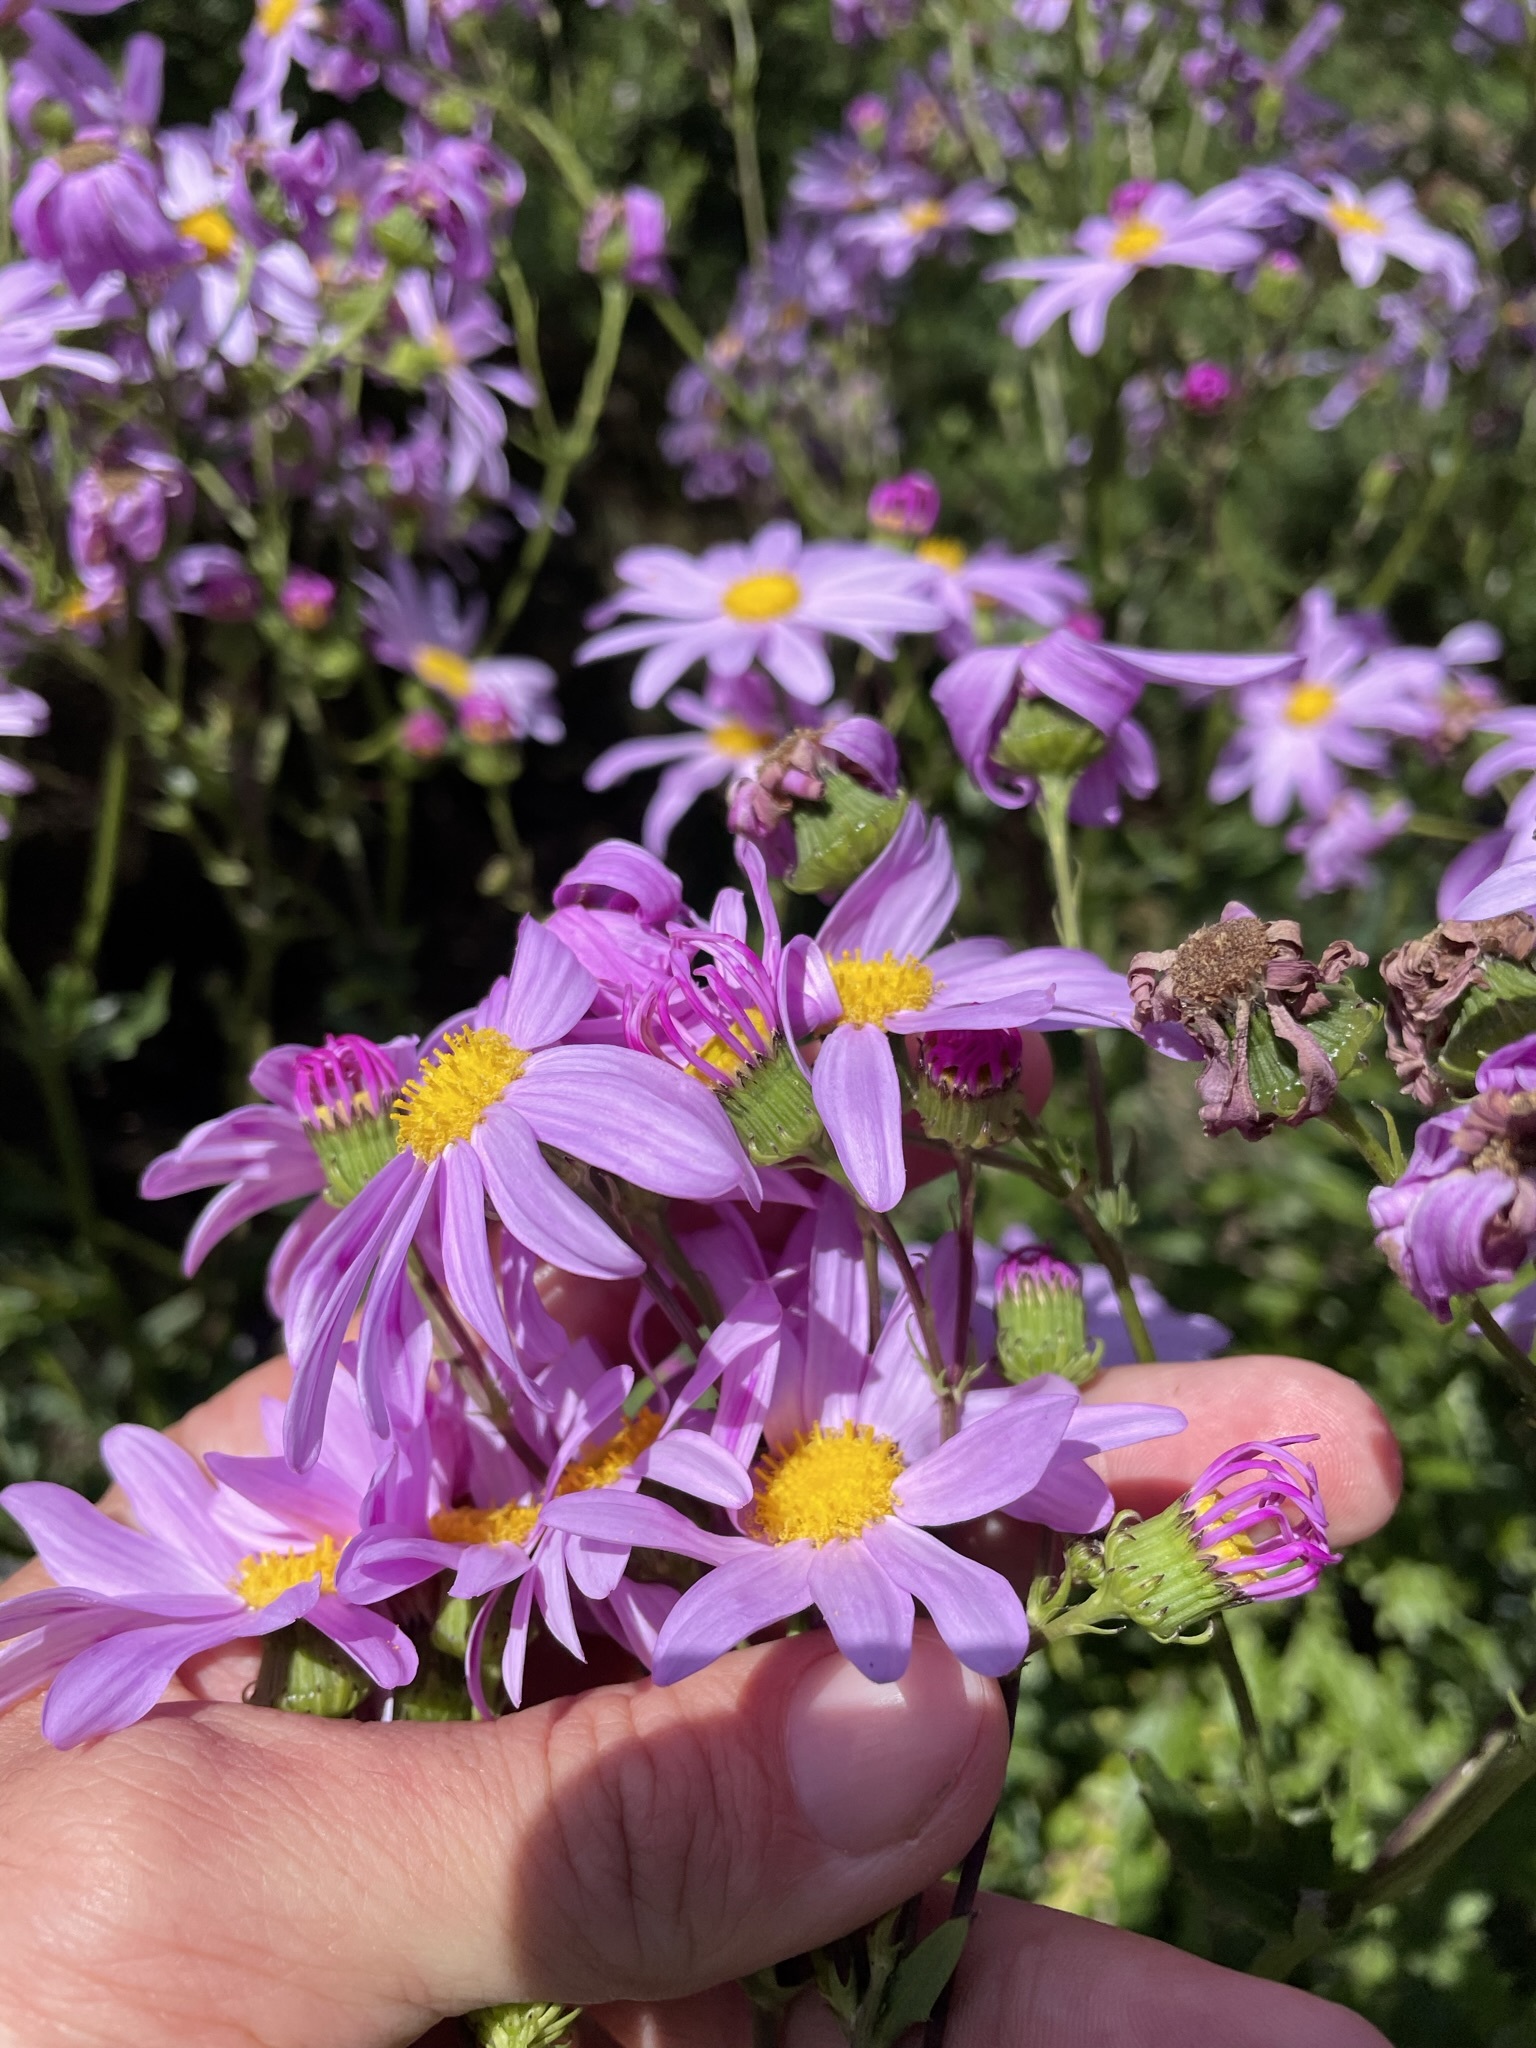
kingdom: Plantae
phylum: Tracheophyta
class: Magnoliopsida
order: Asterales
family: Asteraceae
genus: Senecio
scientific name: Senecio glastifolius
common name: Woad-leaved ragwort
